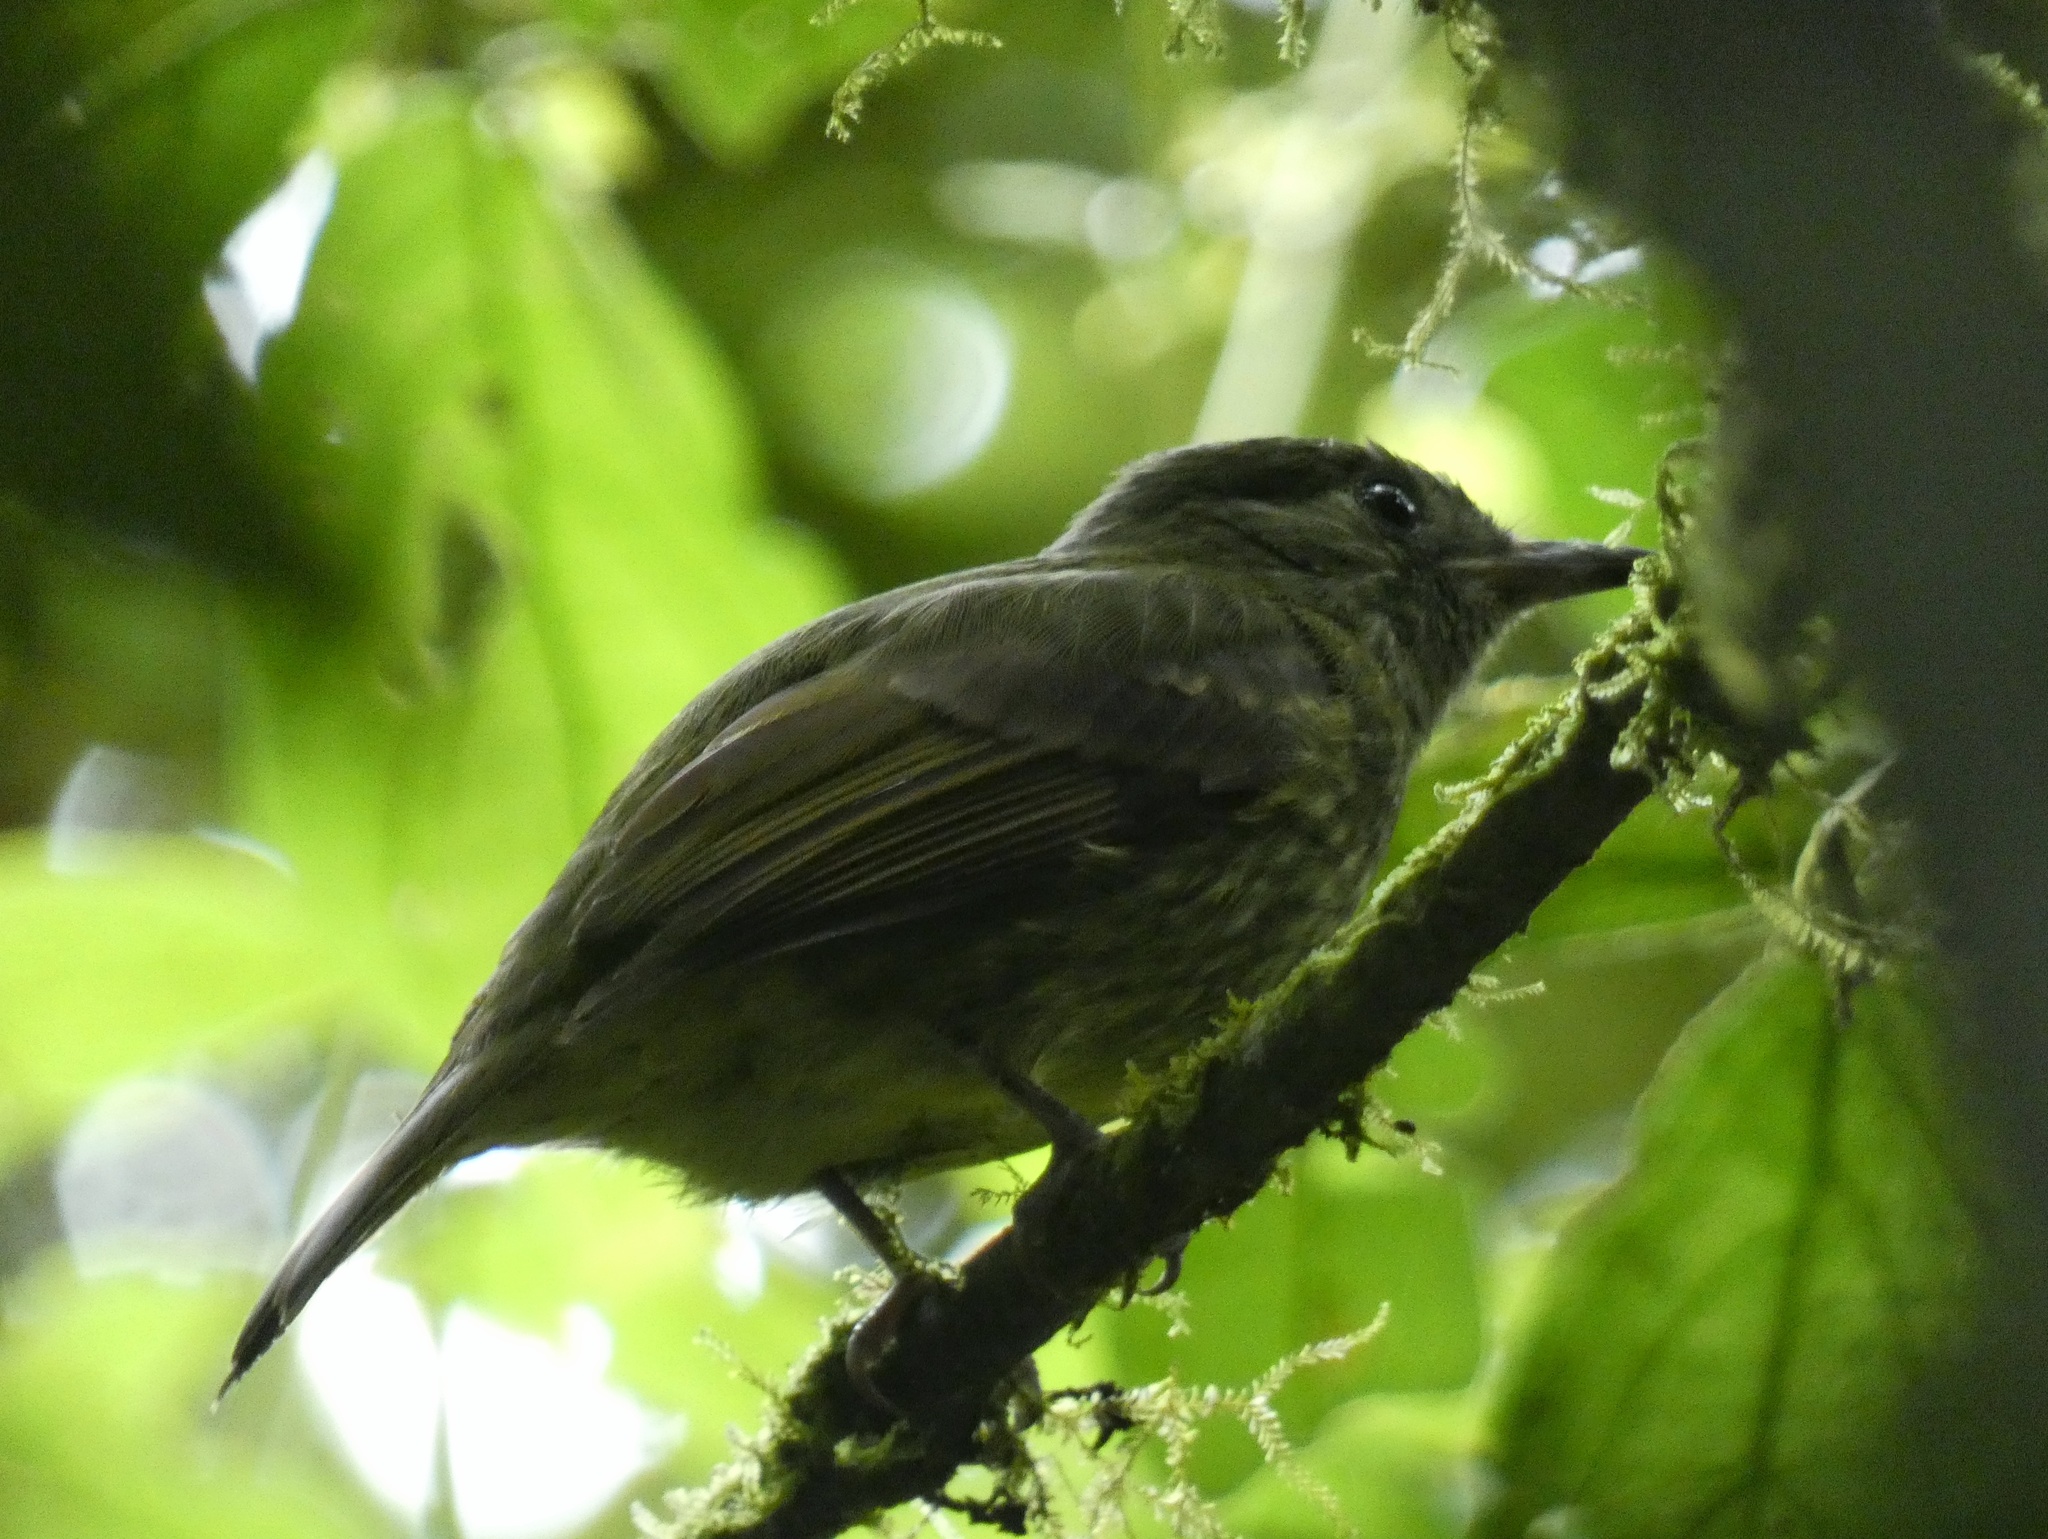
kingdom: Animalia
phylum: Chordata
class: Aves
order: Passeriformes
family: Tyrannidae
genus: Mionectes
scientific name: Mionectes galbinus
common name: Olive-striped flycatcher
